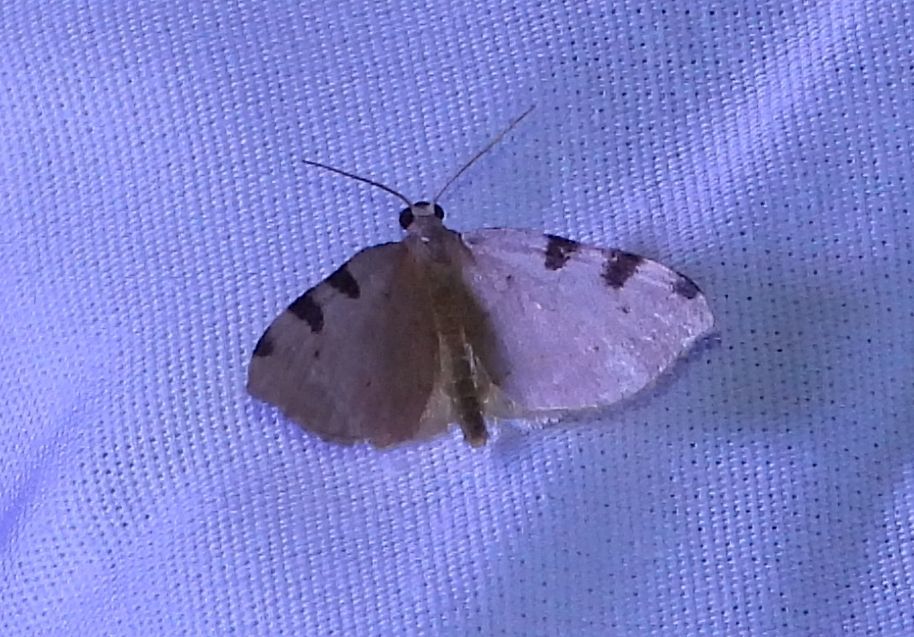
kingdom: Animalia
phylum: Arthropoda
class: Insecta
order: Lepidoptera
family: Geometridae
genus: Heterophleps
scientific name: Heterophleps triguttaria
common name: Three-spotted fillip
